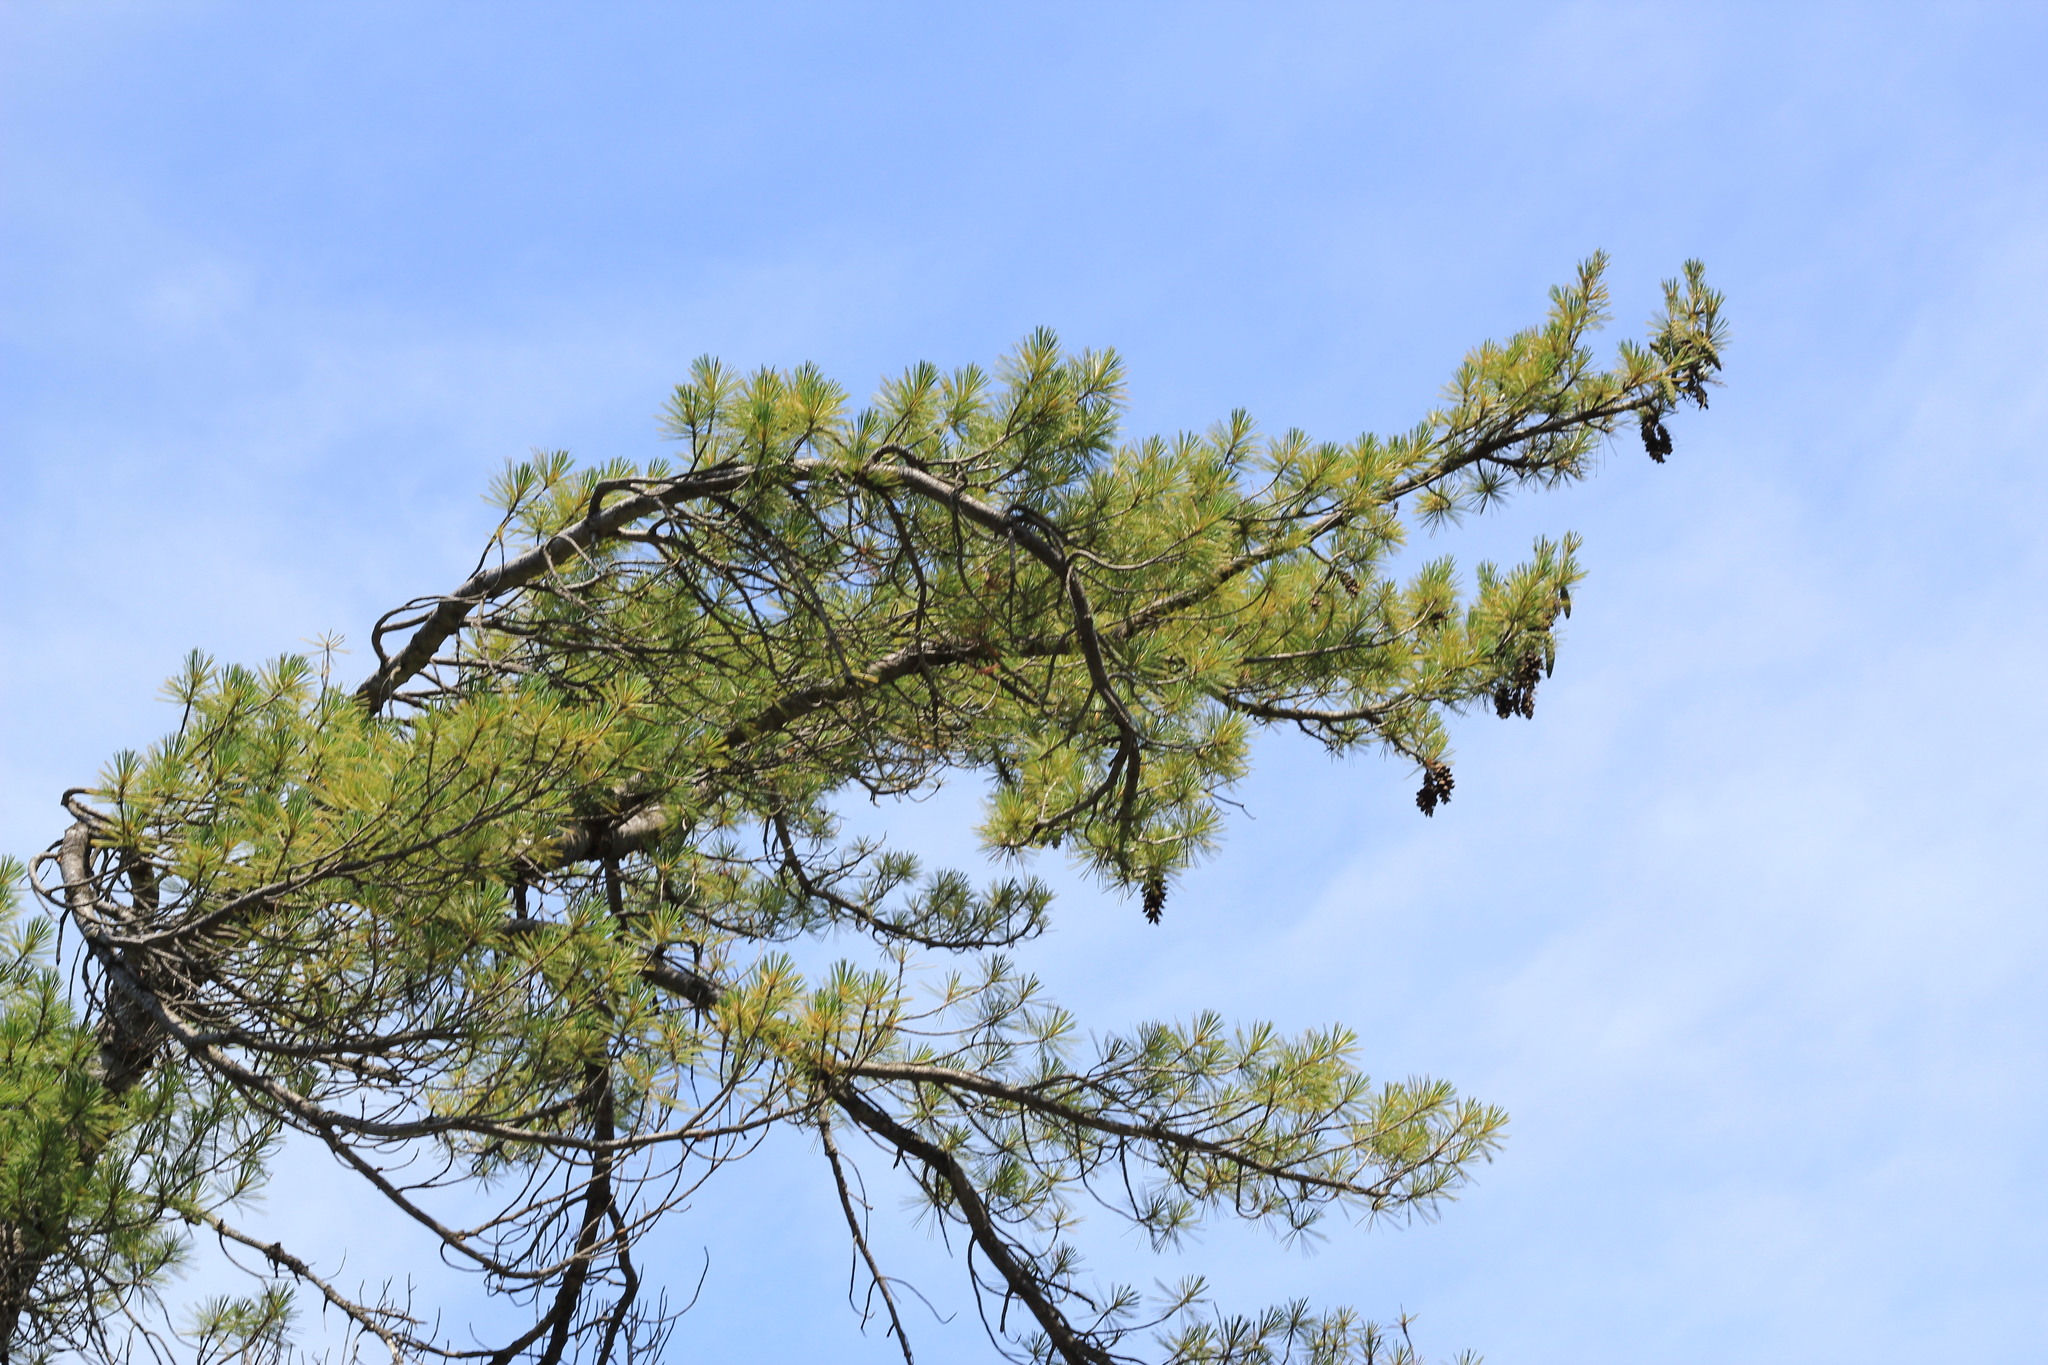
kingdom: Plantae
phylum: Tracheophyta
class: Pinopsida
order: Pinales
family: Pinaceae
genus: Pinus
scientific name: Pinus strobus
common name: Weymouth pine
